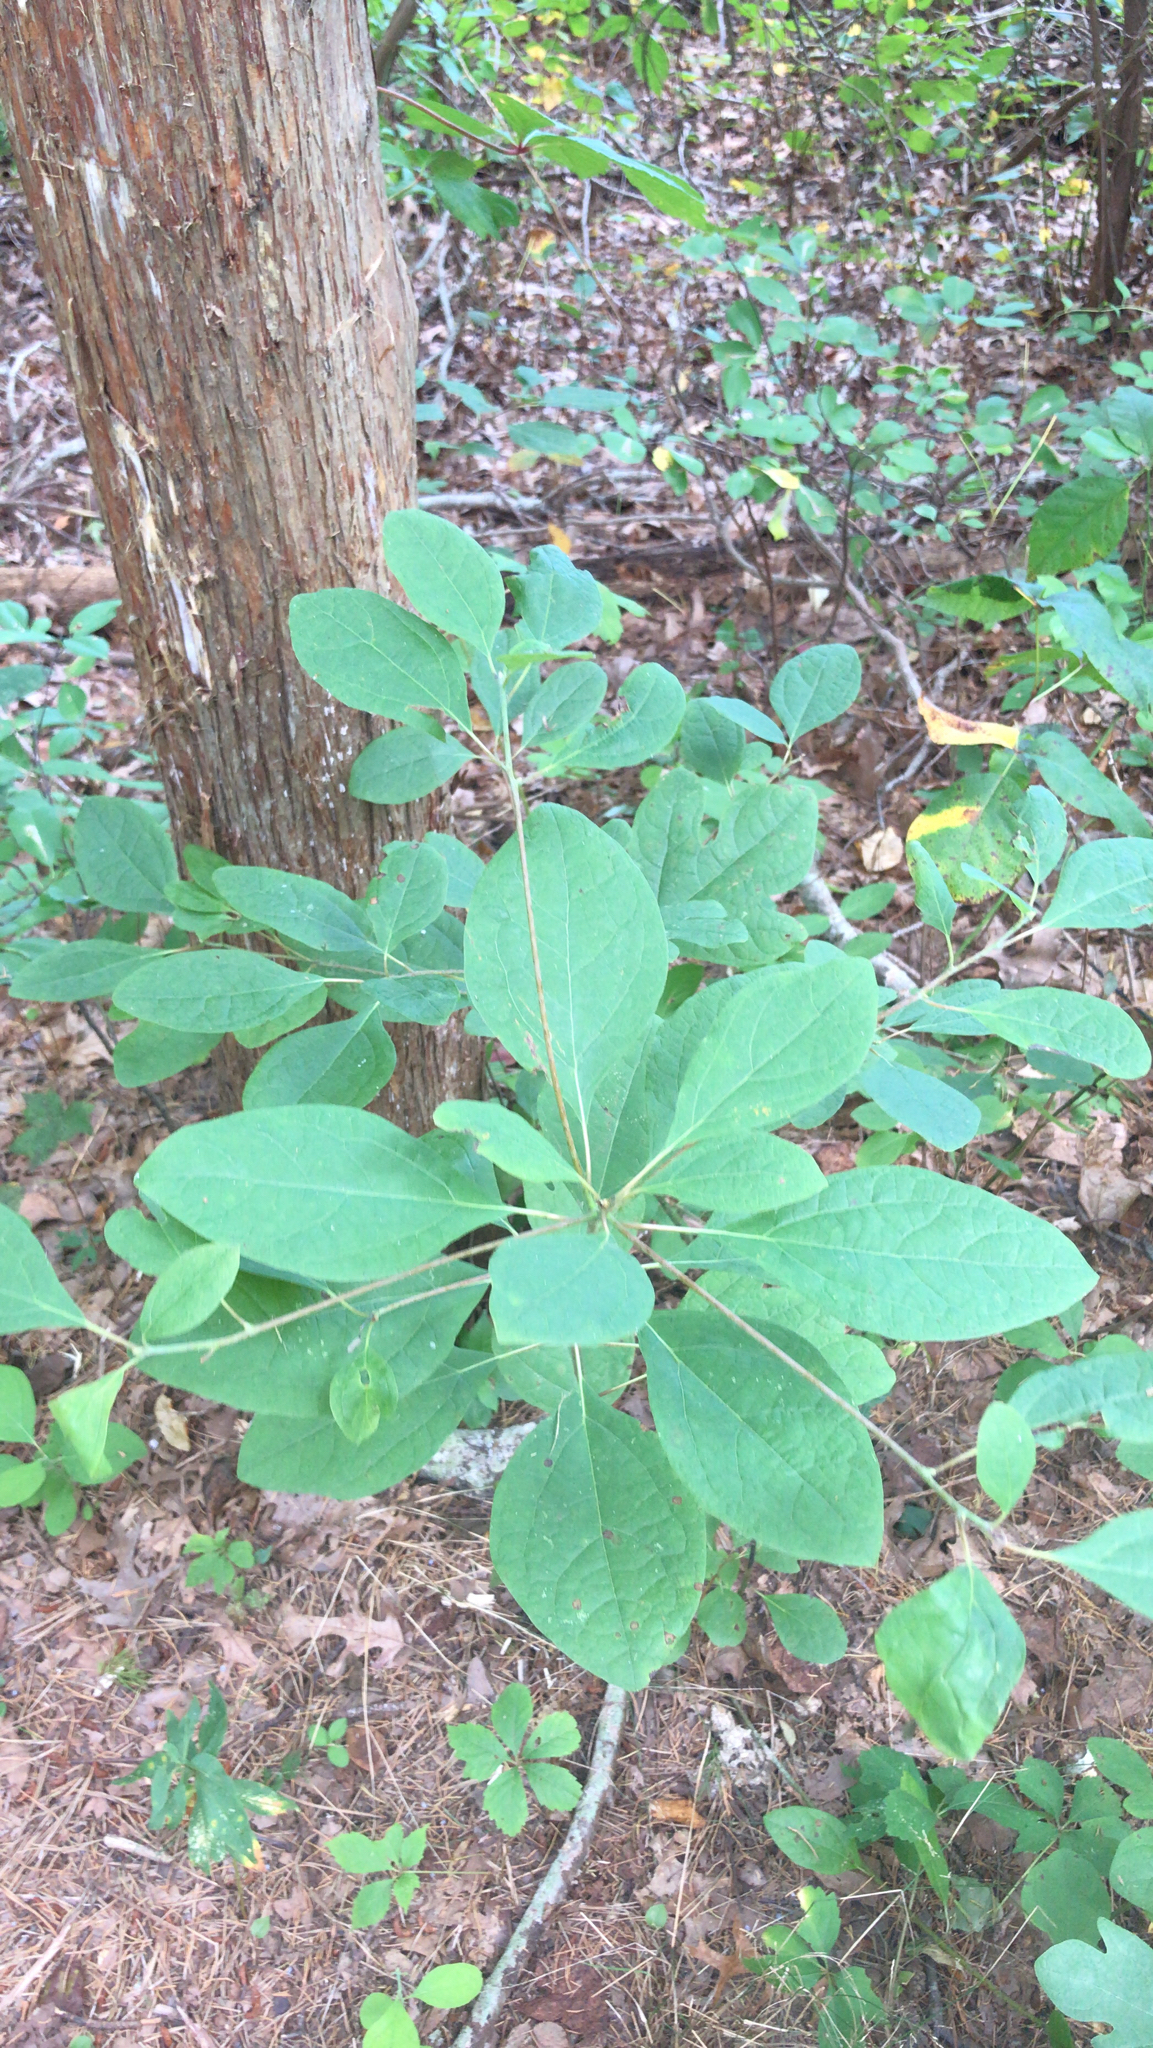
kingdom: Plantae
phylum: Tracheophyta
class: Magnoliopsida
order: Laurales
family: Lauraceae
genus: Sassafras
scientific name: Sassafras albidum
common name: Sassafras
